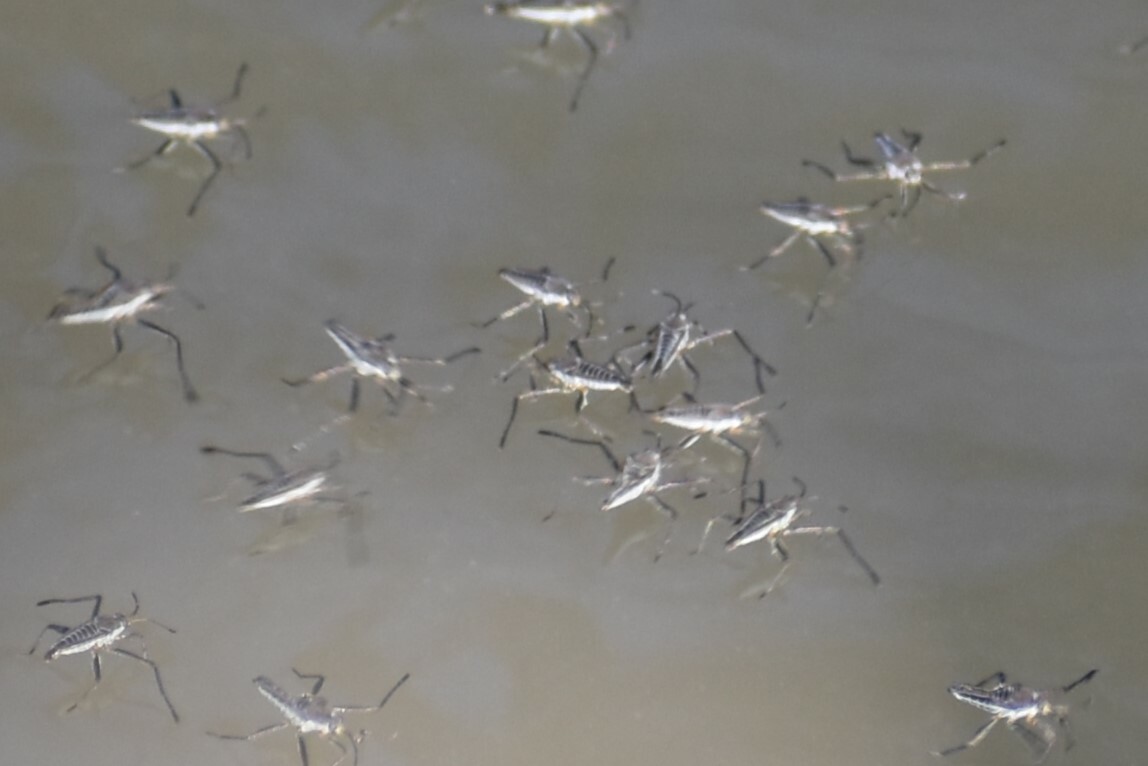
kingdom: Animalia
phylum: Arthropoda
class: Insecta
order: Hemiptera
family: Veliidae
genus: Rhagovelia
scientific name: Rhagovelia
